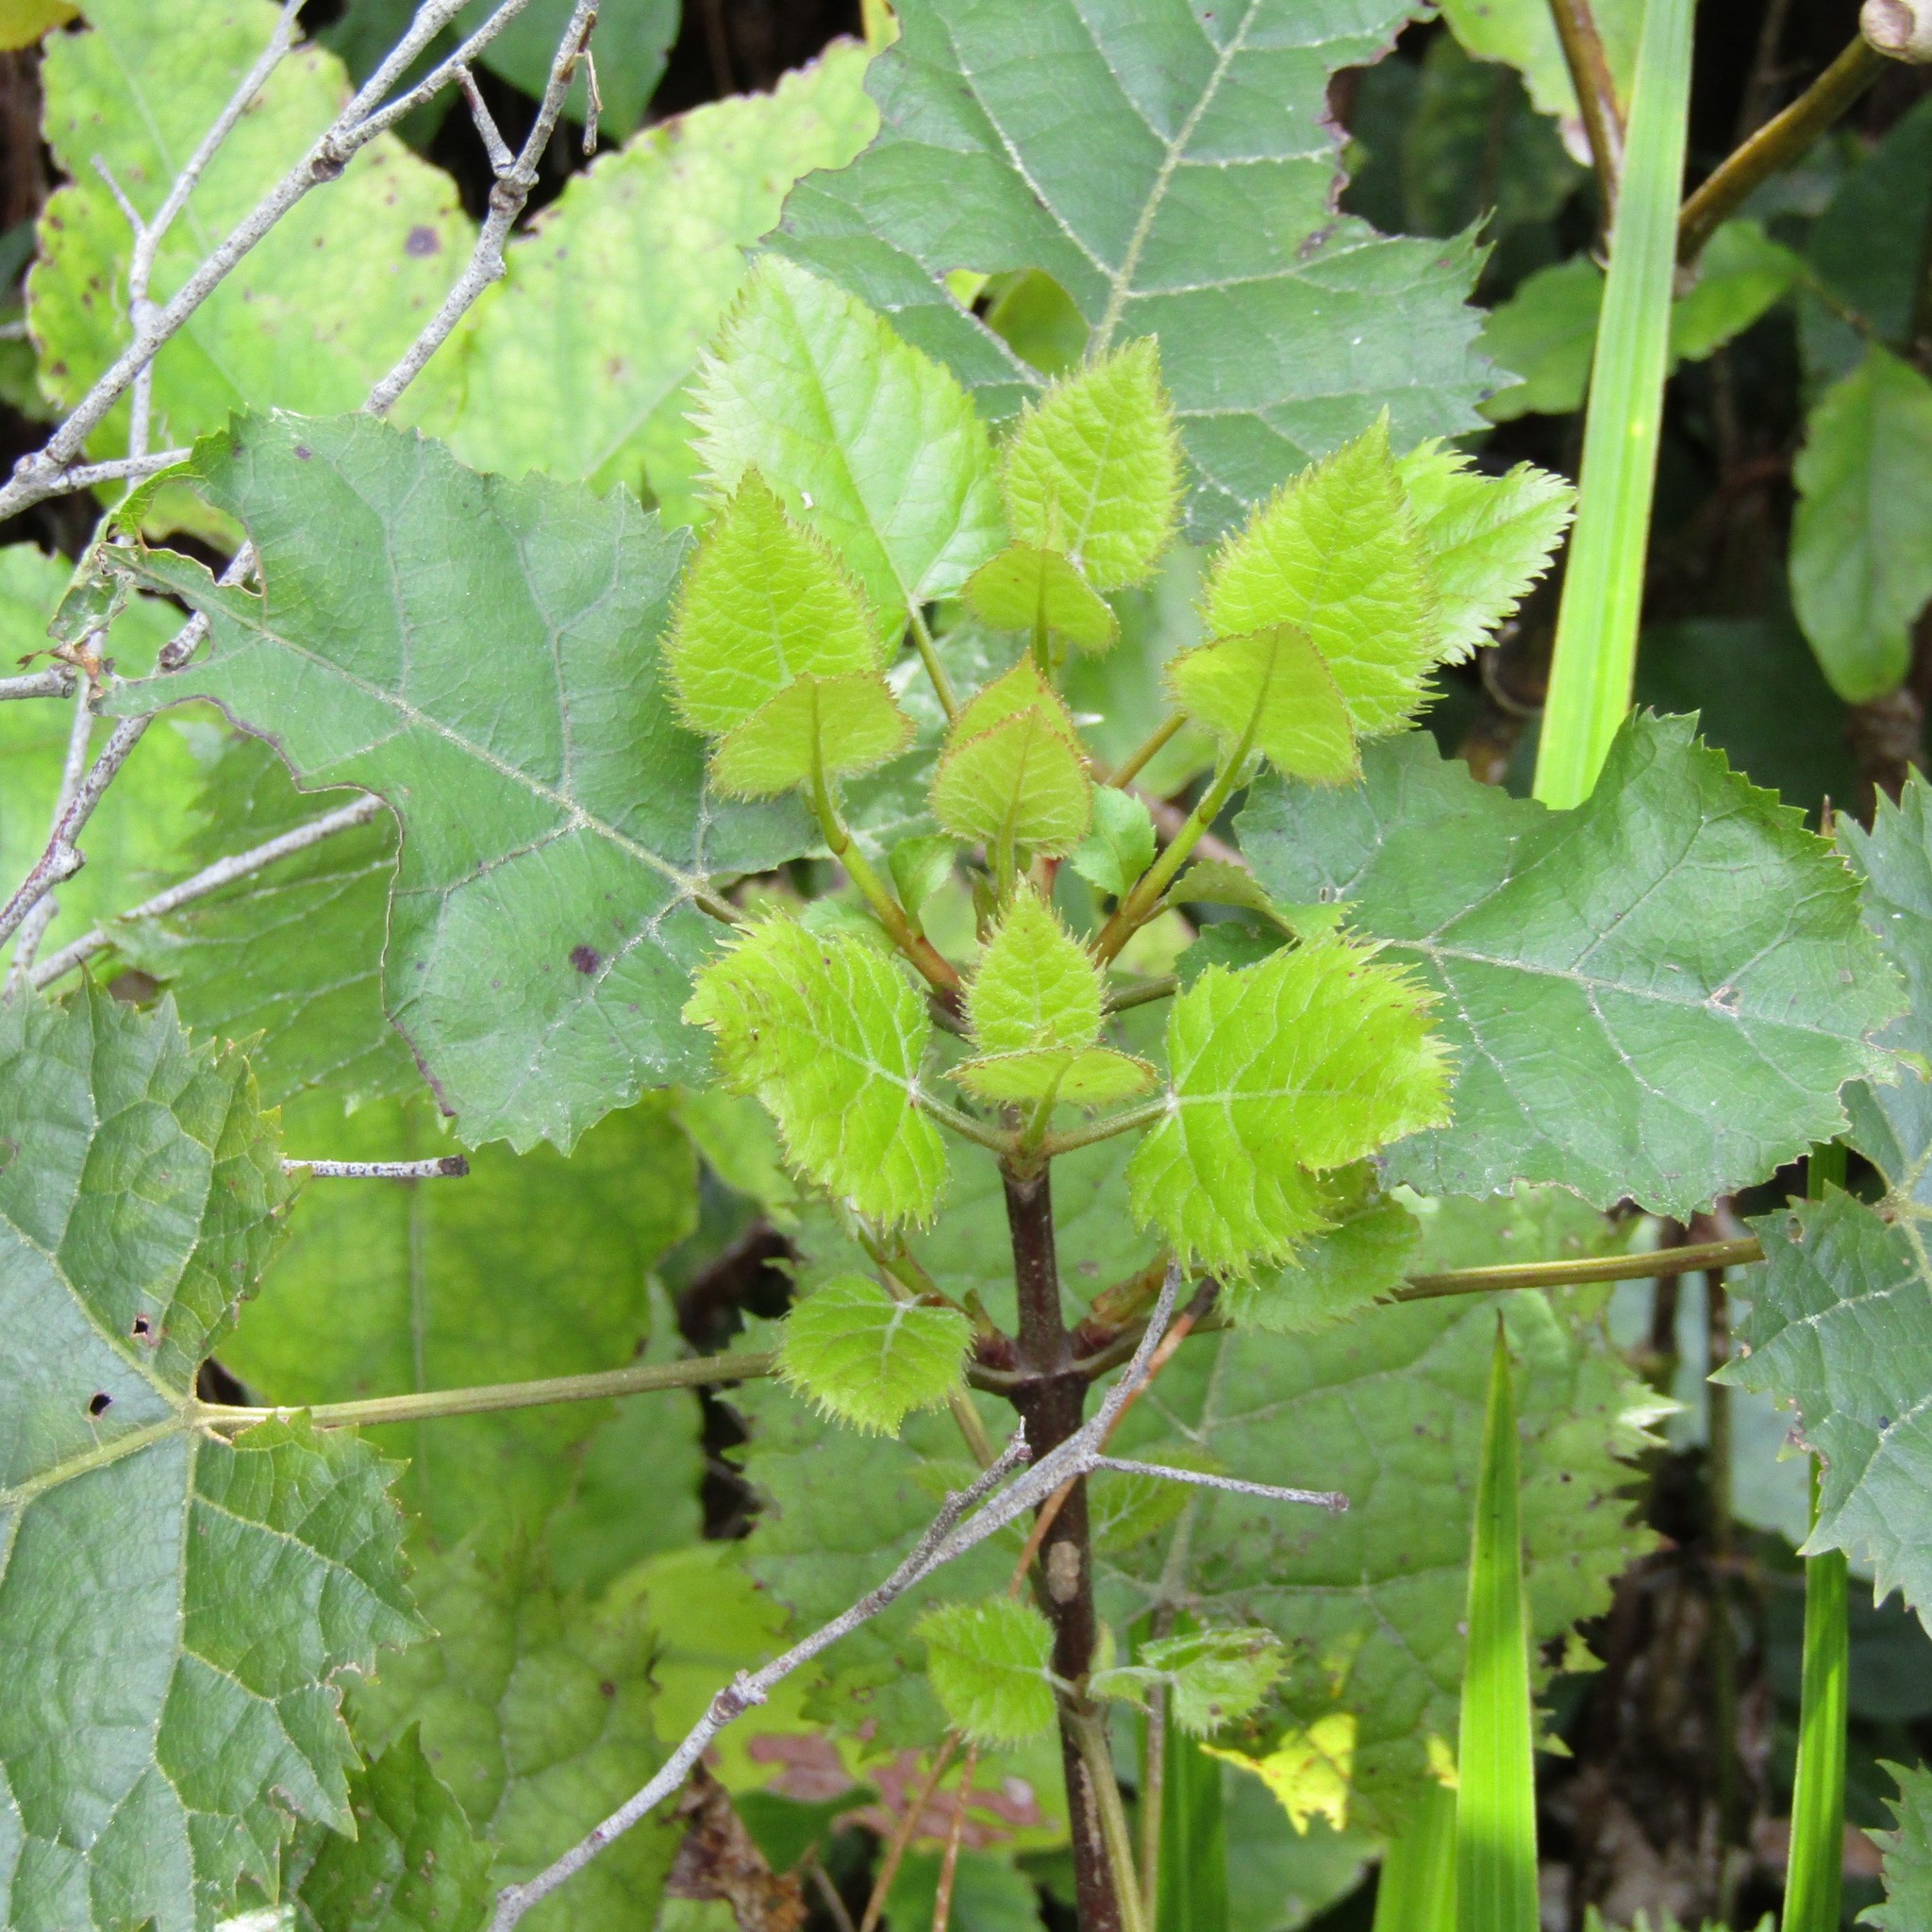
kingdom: Plantae
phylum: Tracheophyta
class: Magnoliopsida
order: Oxalidales
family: Elaeocarpaceae
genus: Aristotelia
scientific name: Aristotelia serrata
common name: New zealand wineberry
